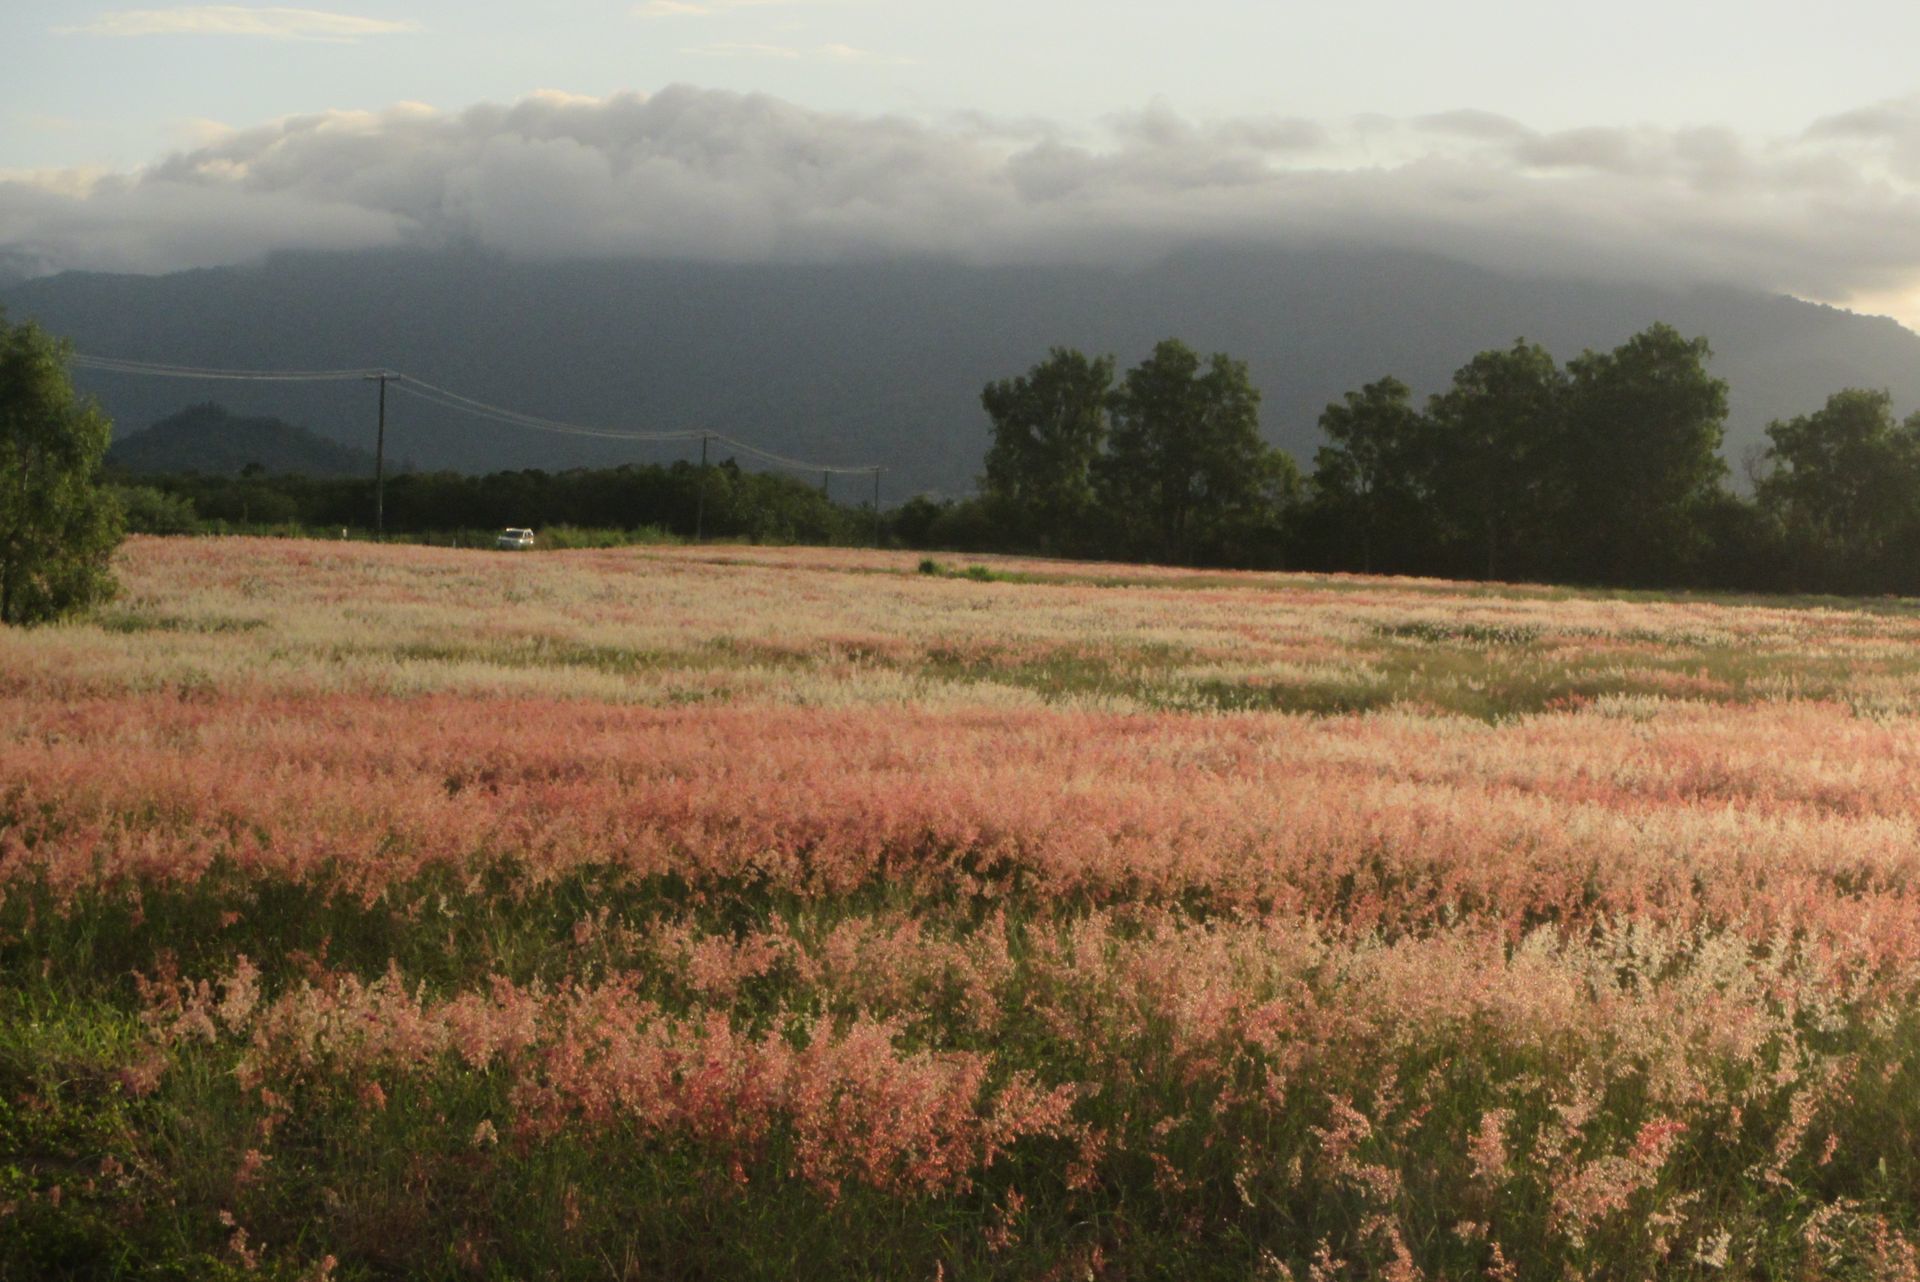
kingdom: Plantae
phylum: Tracheophyta
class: Liliopsida
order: Poales
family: Poaceae
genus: Melinis
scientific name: Melinis repens
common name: Rose natal grass
